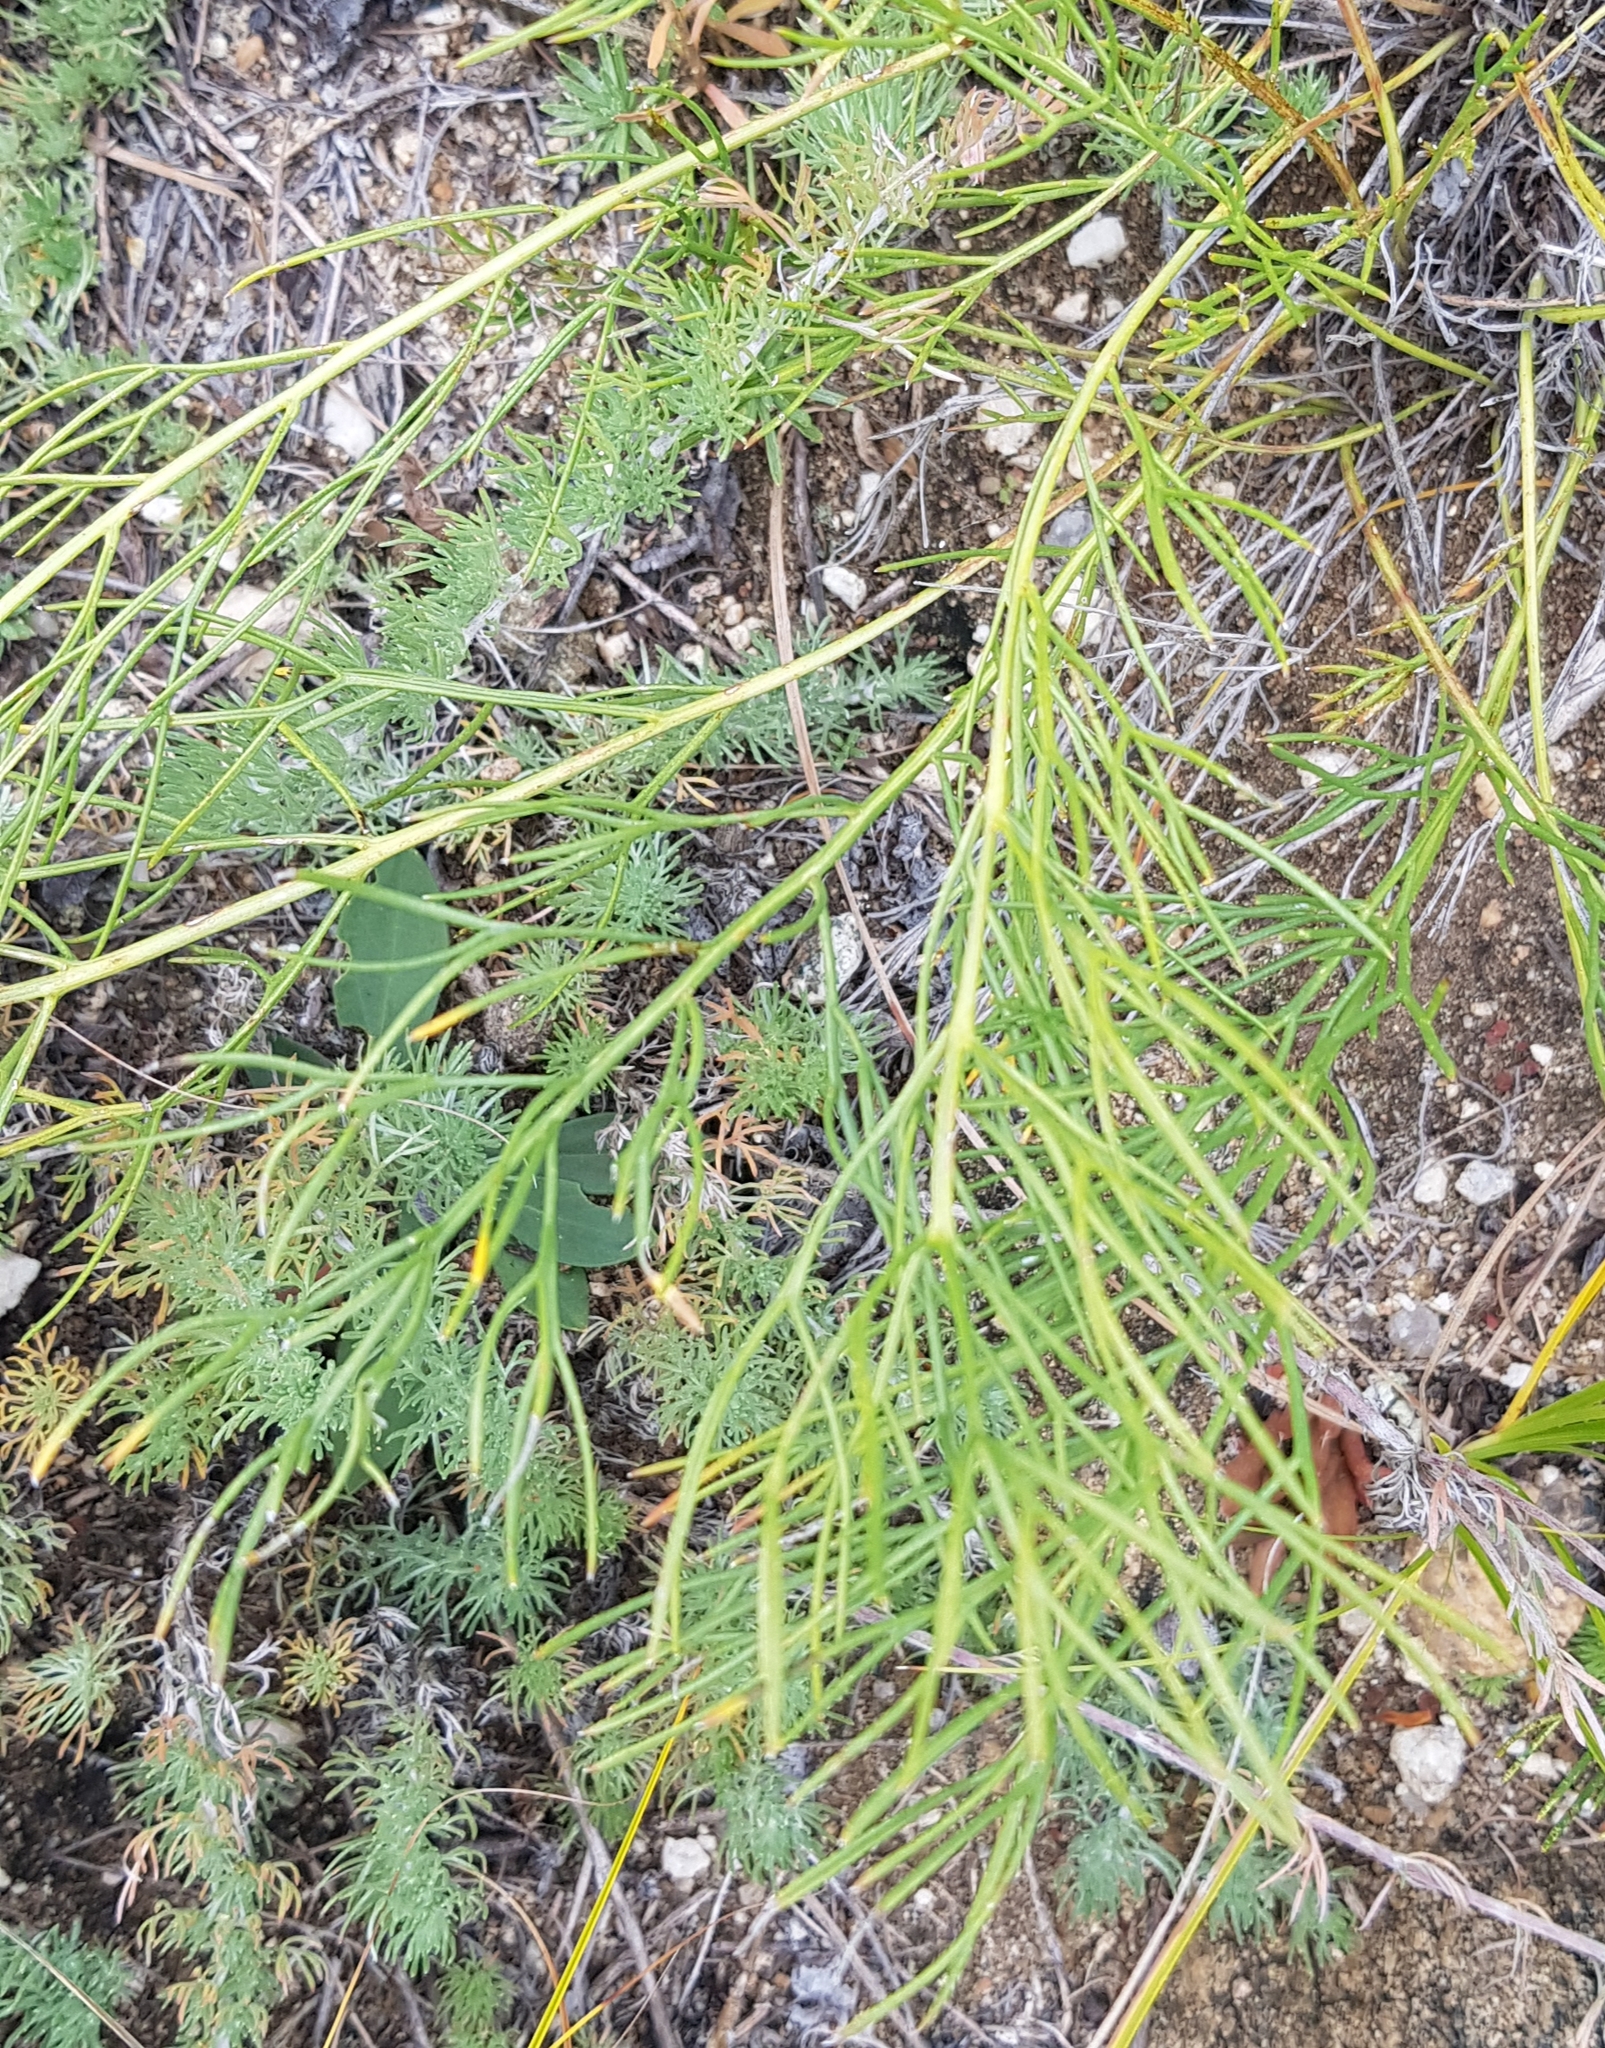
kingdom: Plantae
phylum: Tracheophyta
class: Magnoliopsida
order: Asterales
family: Asteraceae
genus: Filifolium
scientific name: Filifolium sibiricum
